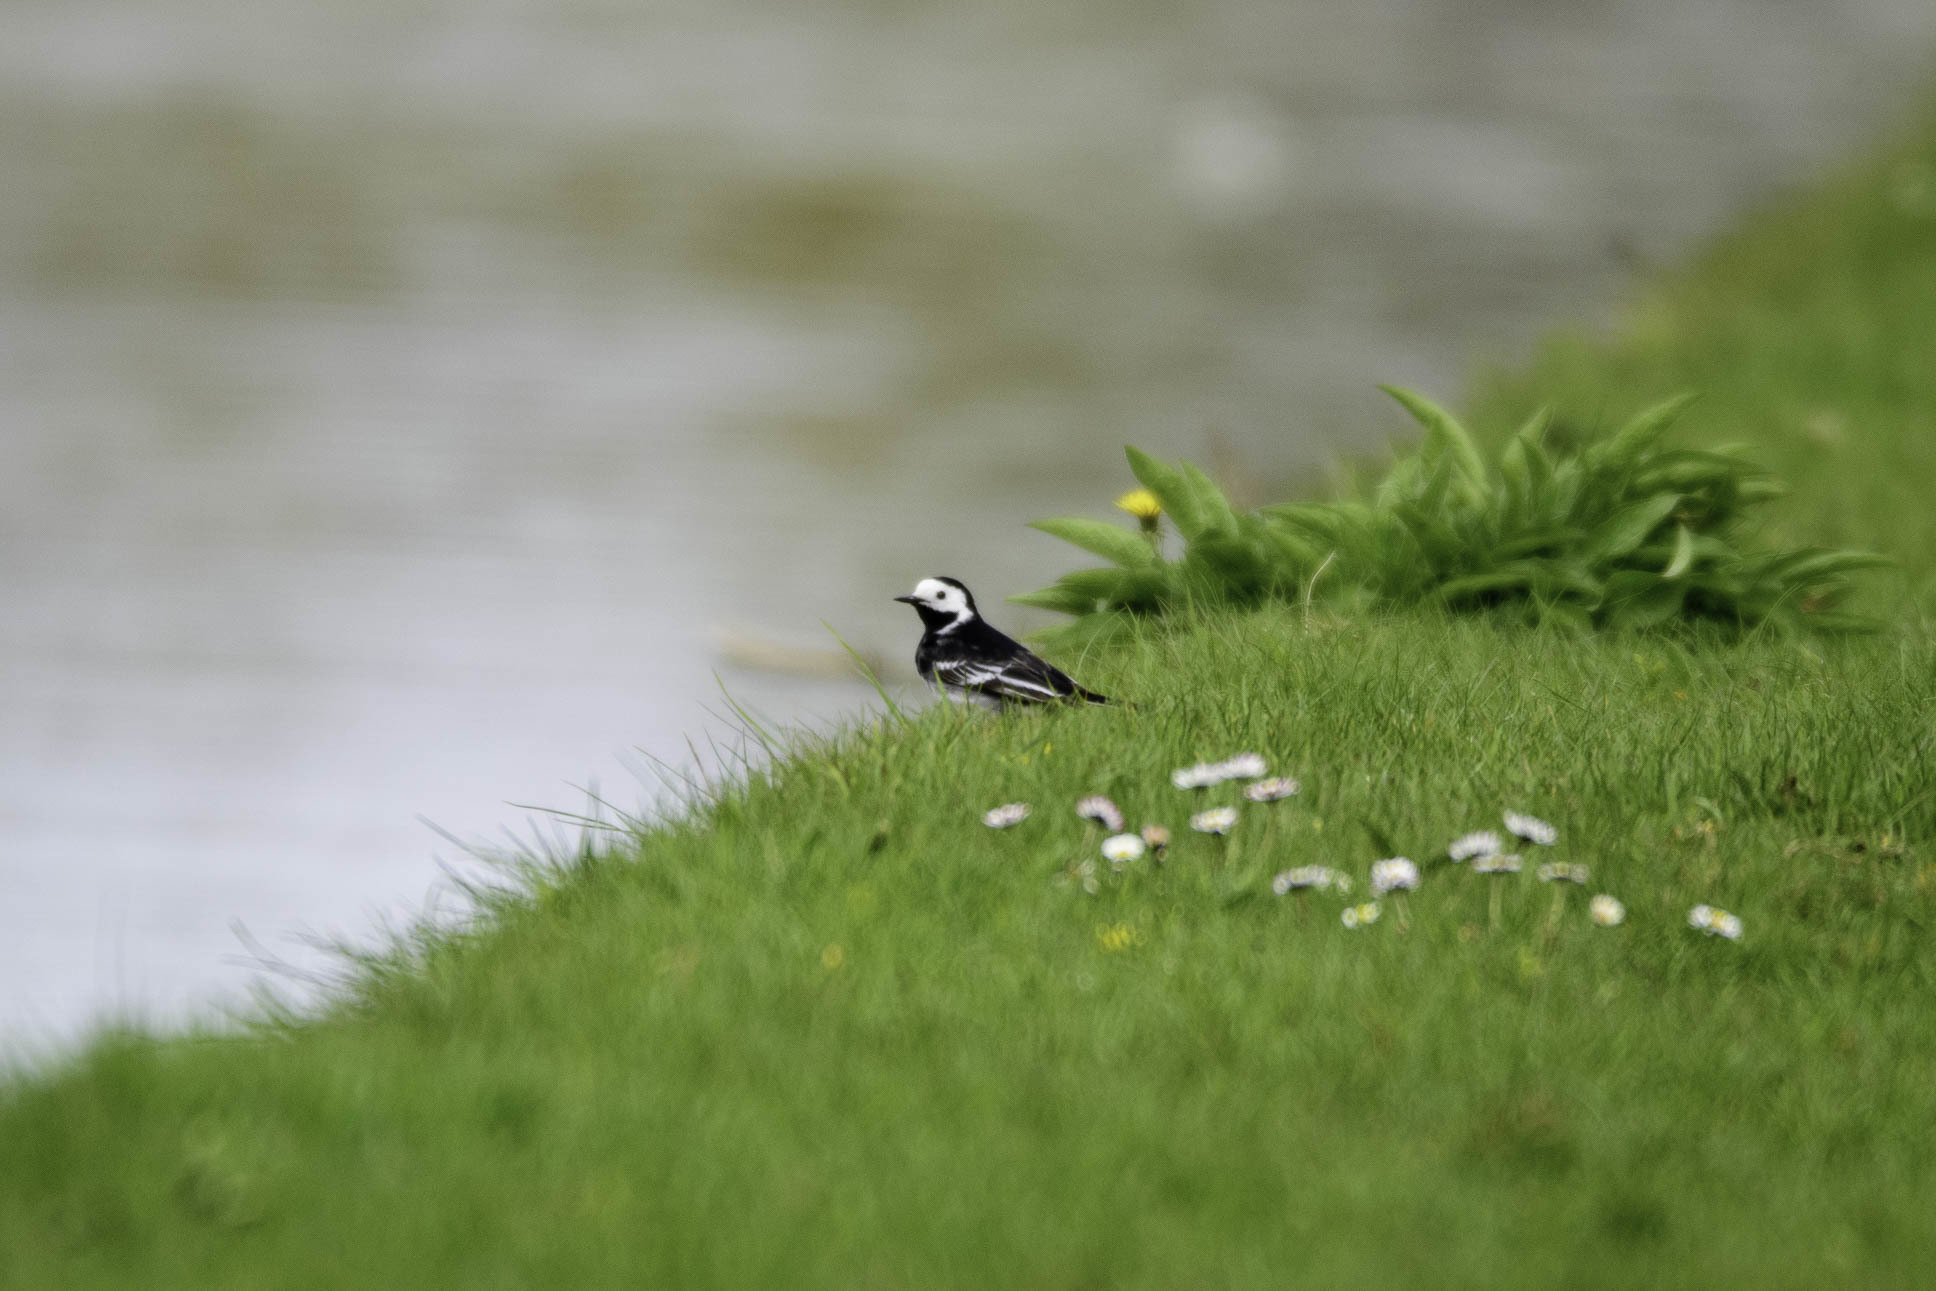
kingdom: Animalia
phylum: Chordata
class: Aves
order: Passeriformes
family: Motacillidae
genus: Motacilla
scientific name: Motacilla alba
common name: White wagtail
